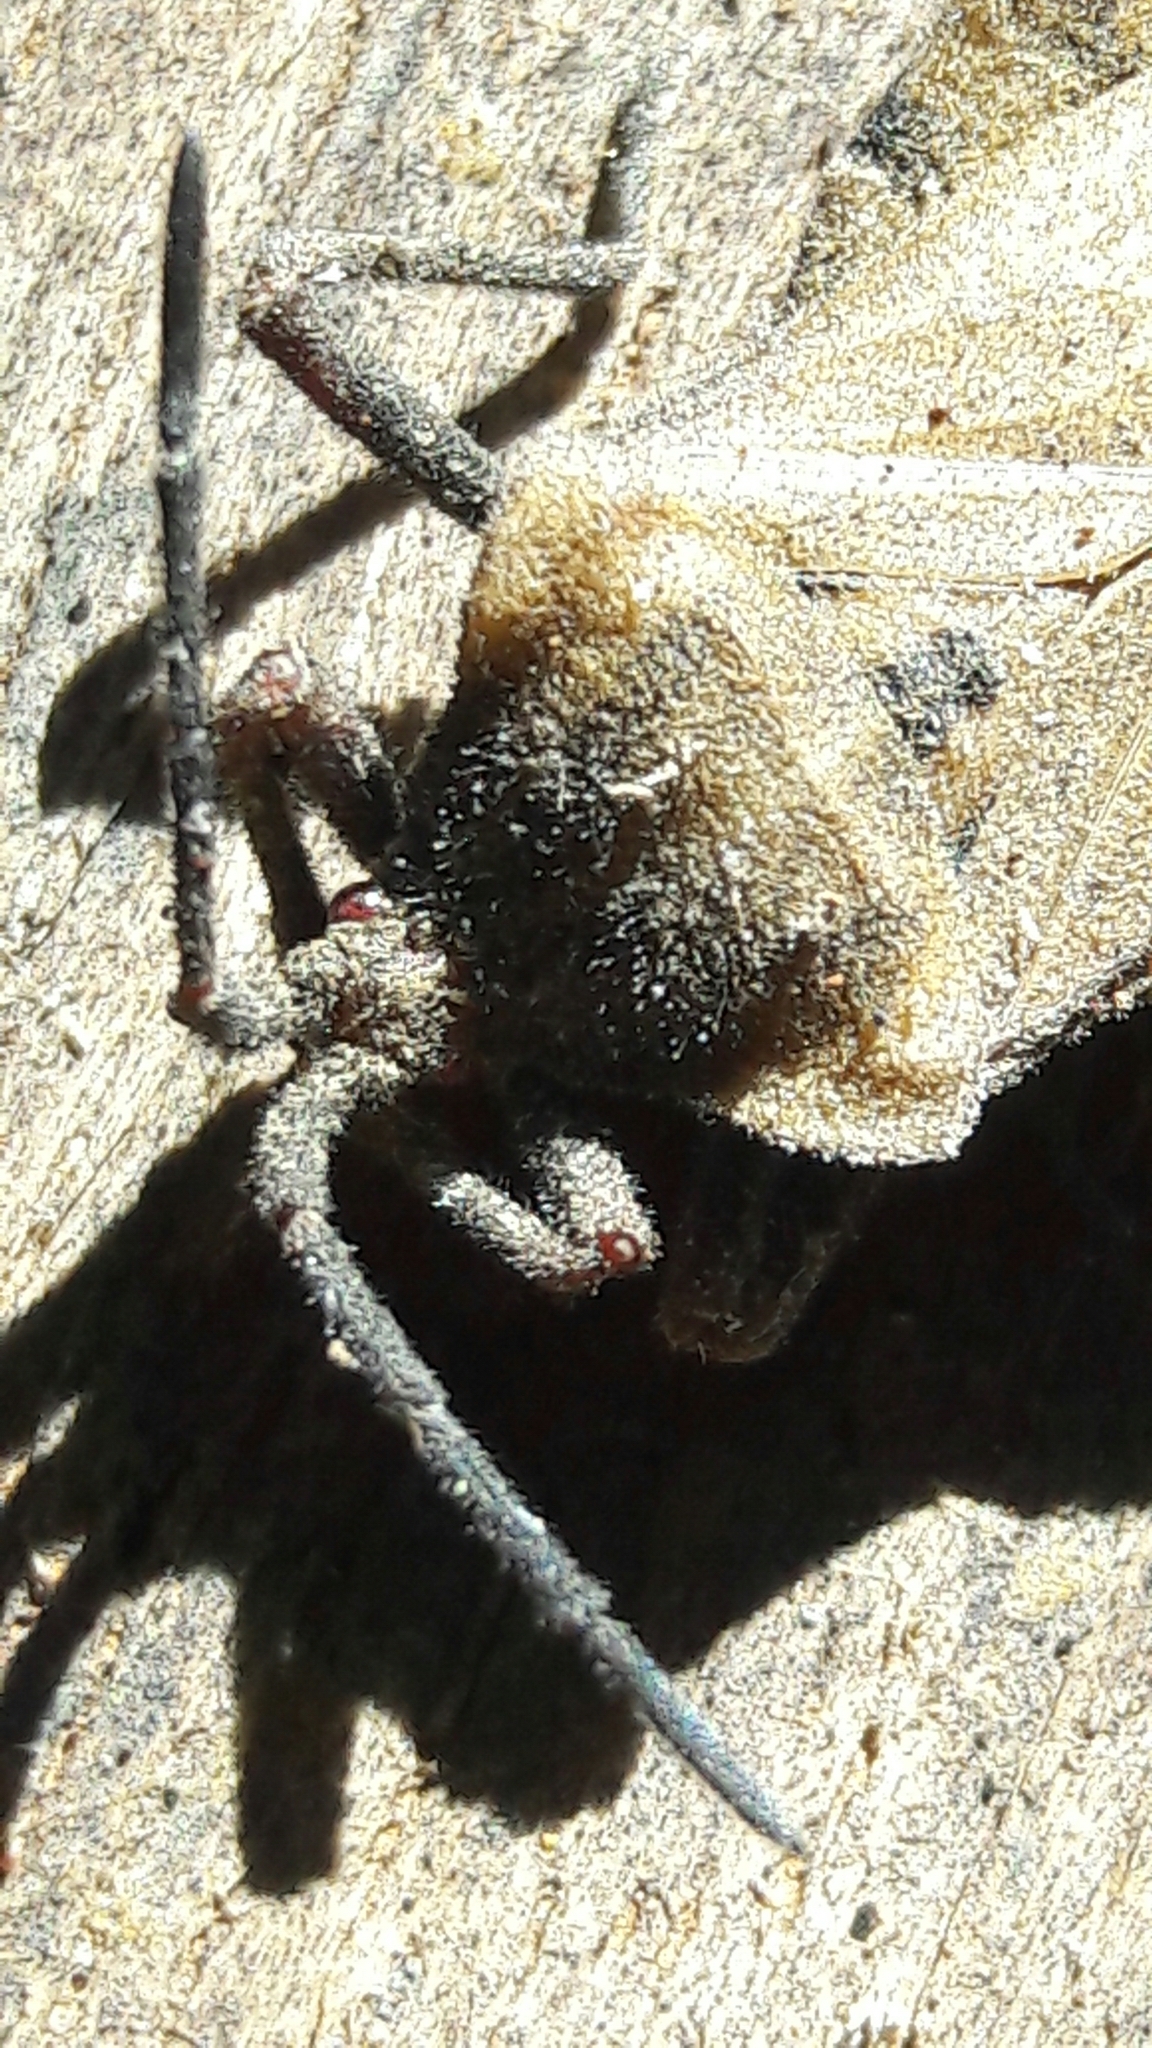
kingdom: Animalia
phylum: Arthropoda
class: Insecta
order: Hemiptera
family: Coreidae
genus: Spartocera
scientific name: Spartocera fusca
